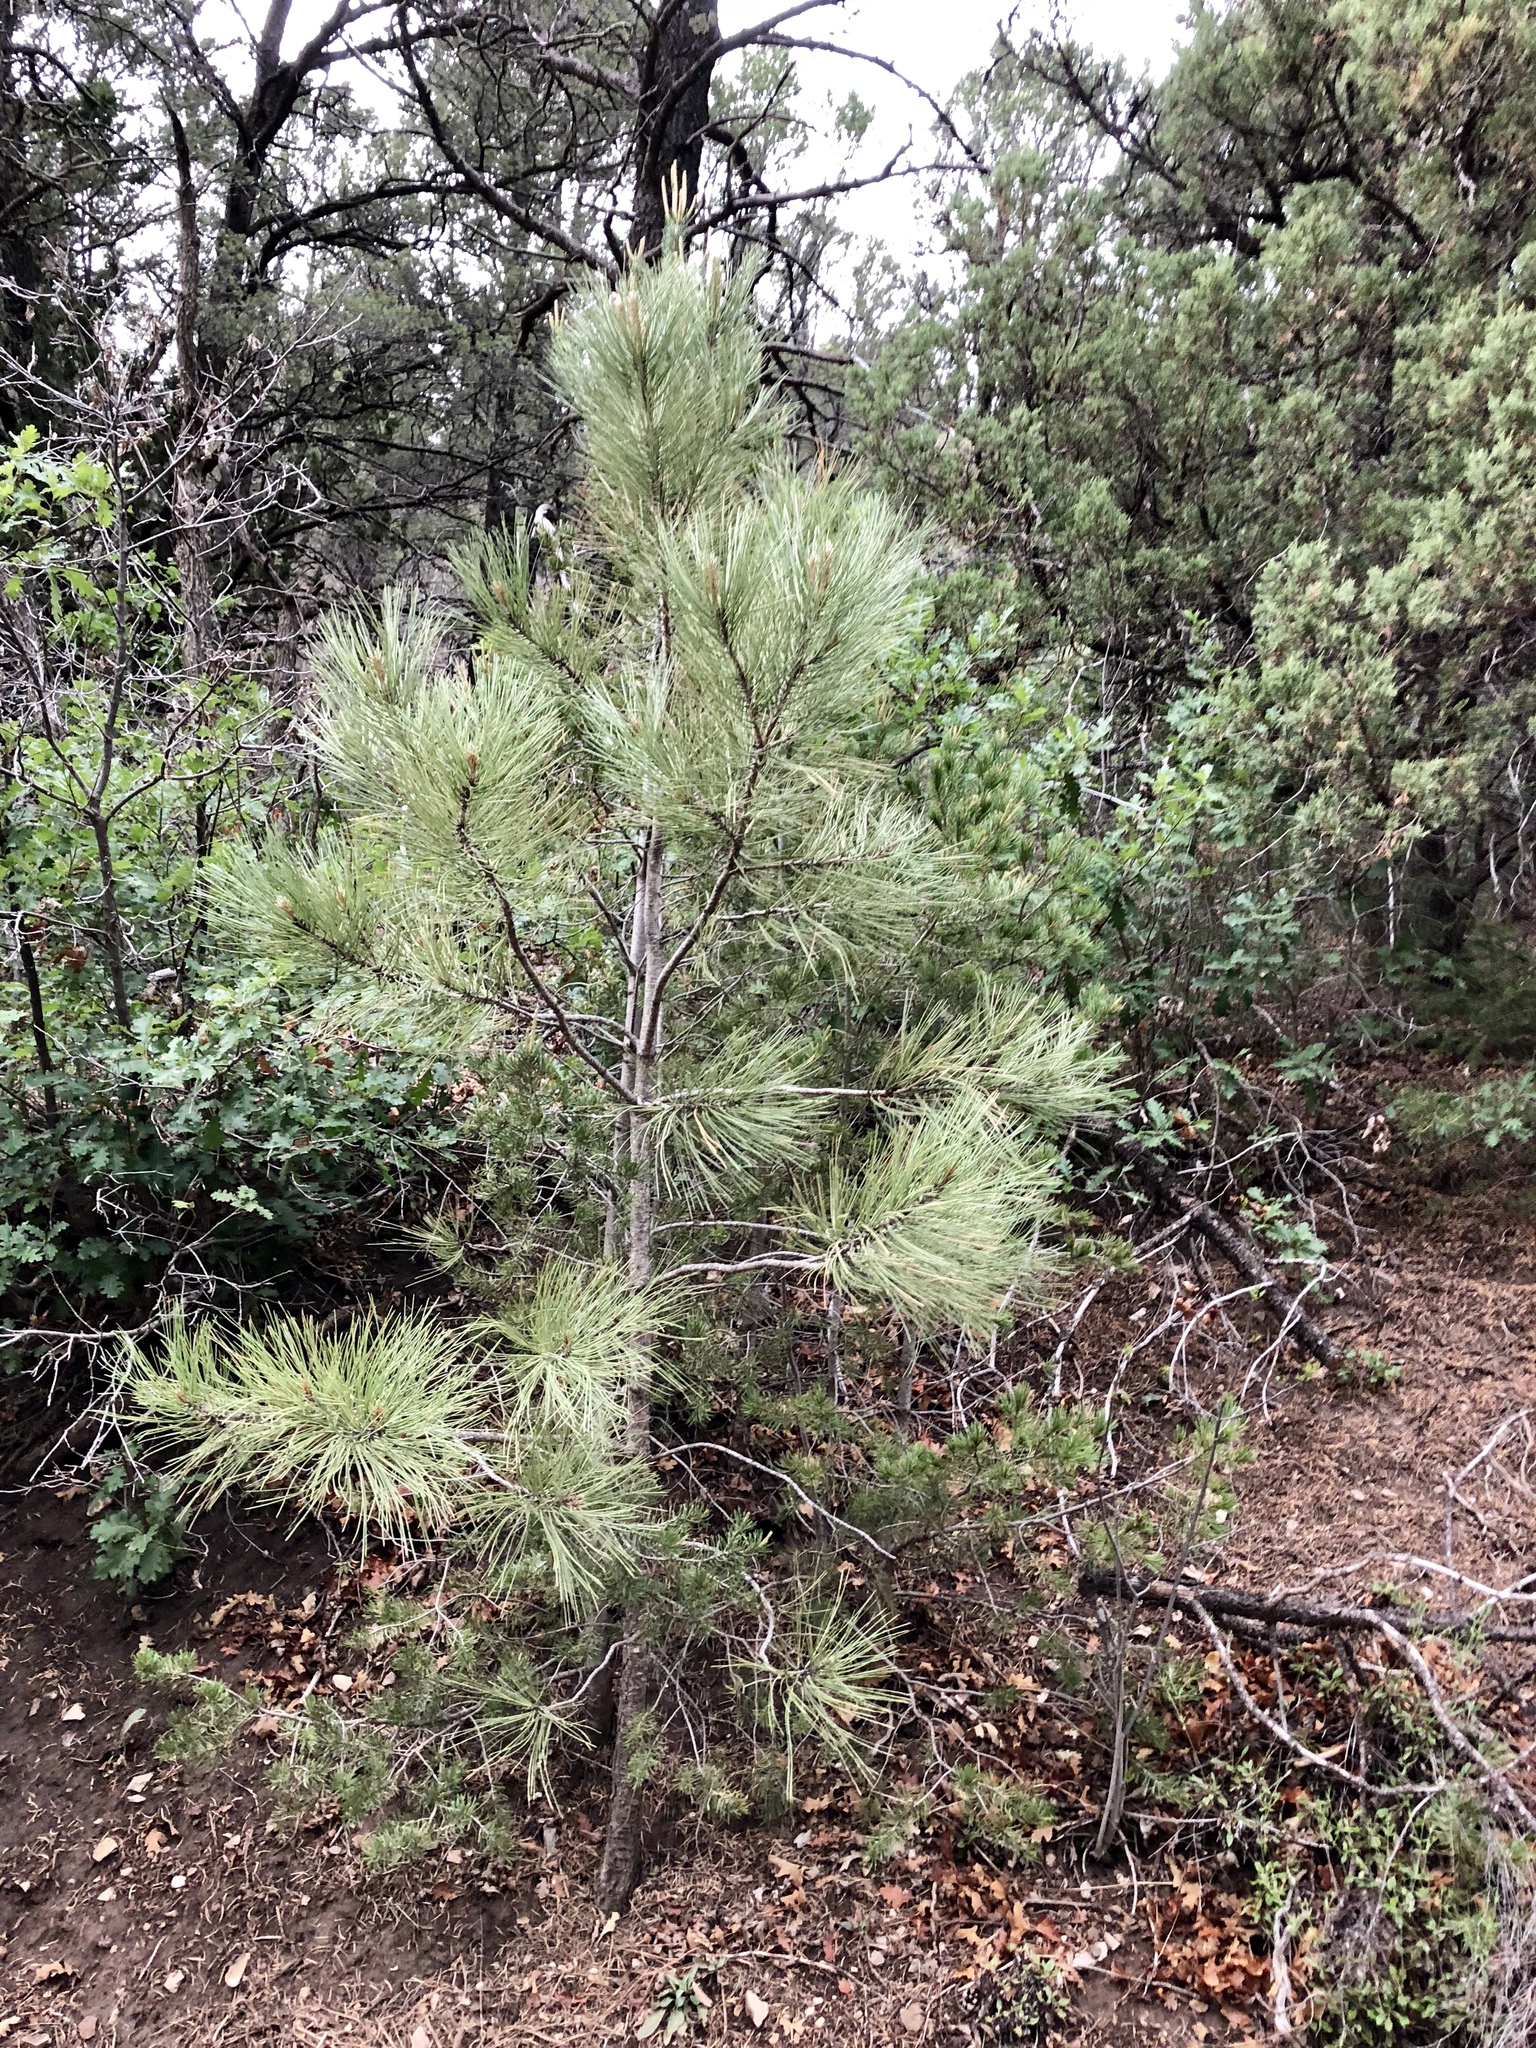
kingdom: Plantae
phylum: Tracheophyta
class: Pinopsida
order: Pinales
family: Pinaceae
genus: Pinus
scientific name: Pinus ponderosa
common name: Western yellow-pine
